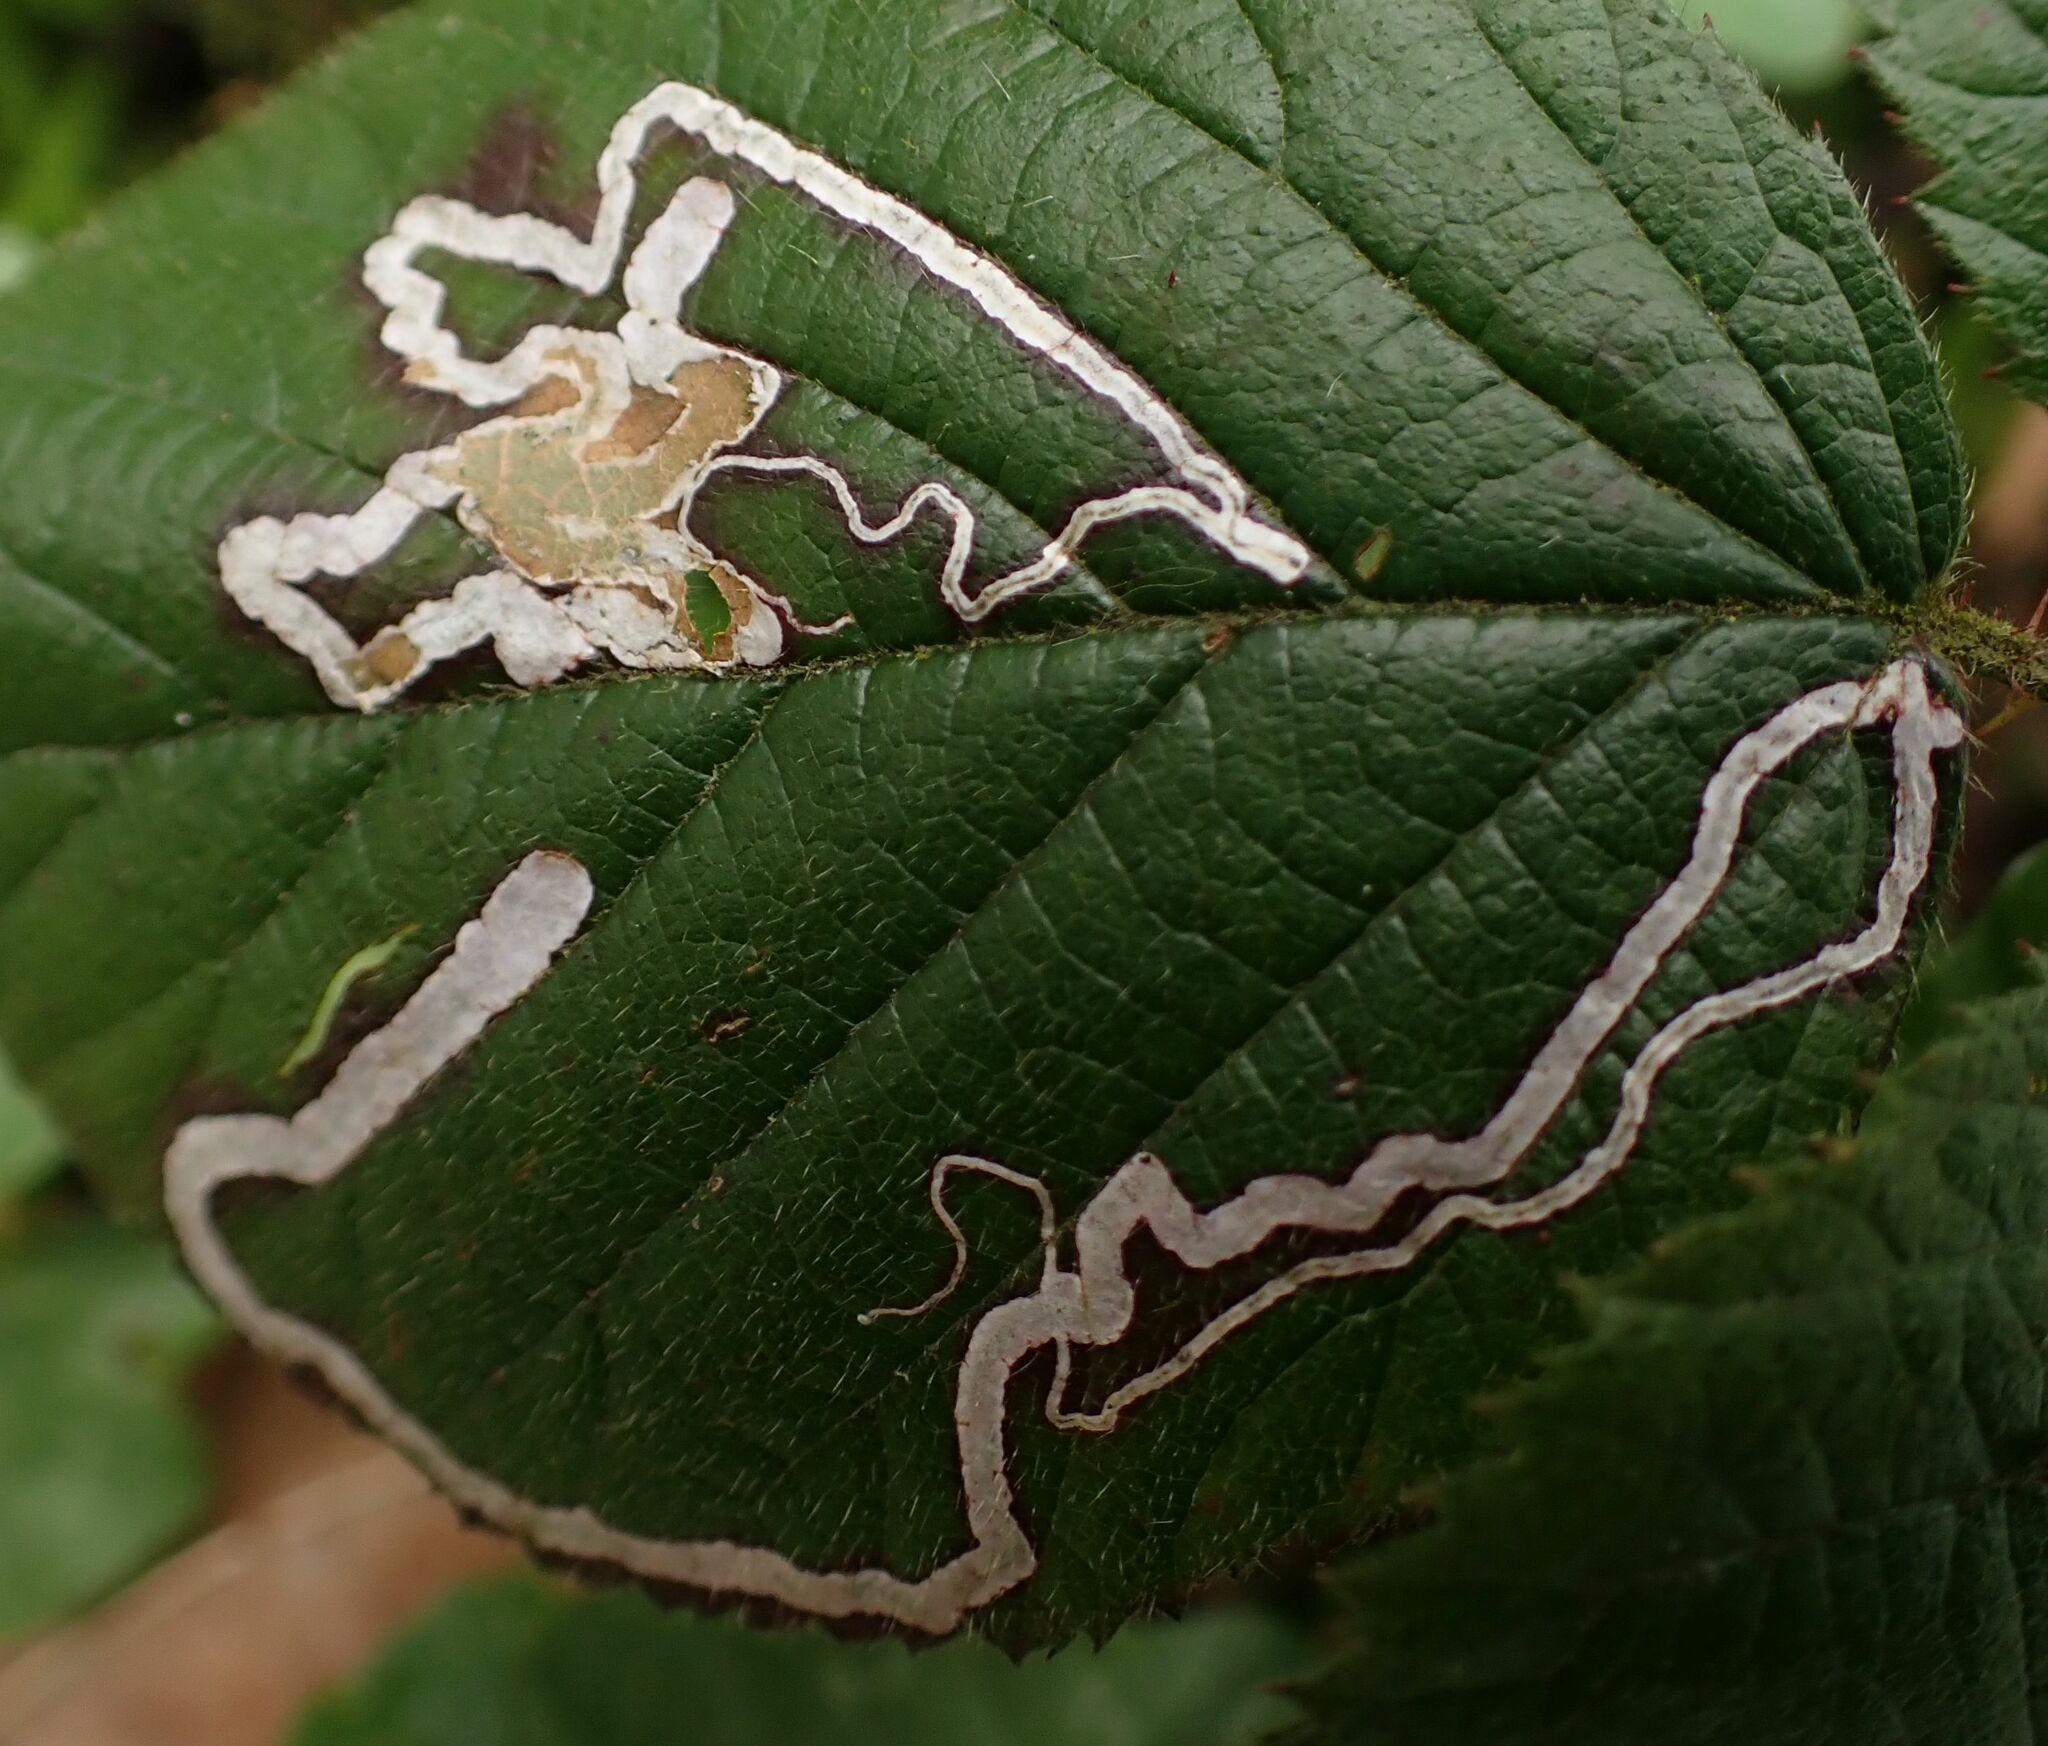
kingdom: Animalia
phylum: Arthropoda
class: Insecta
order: Lepidoptera
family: Nepticulidae
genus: Stigmella
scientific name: Stigmella aurella
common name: Golden pigmy
